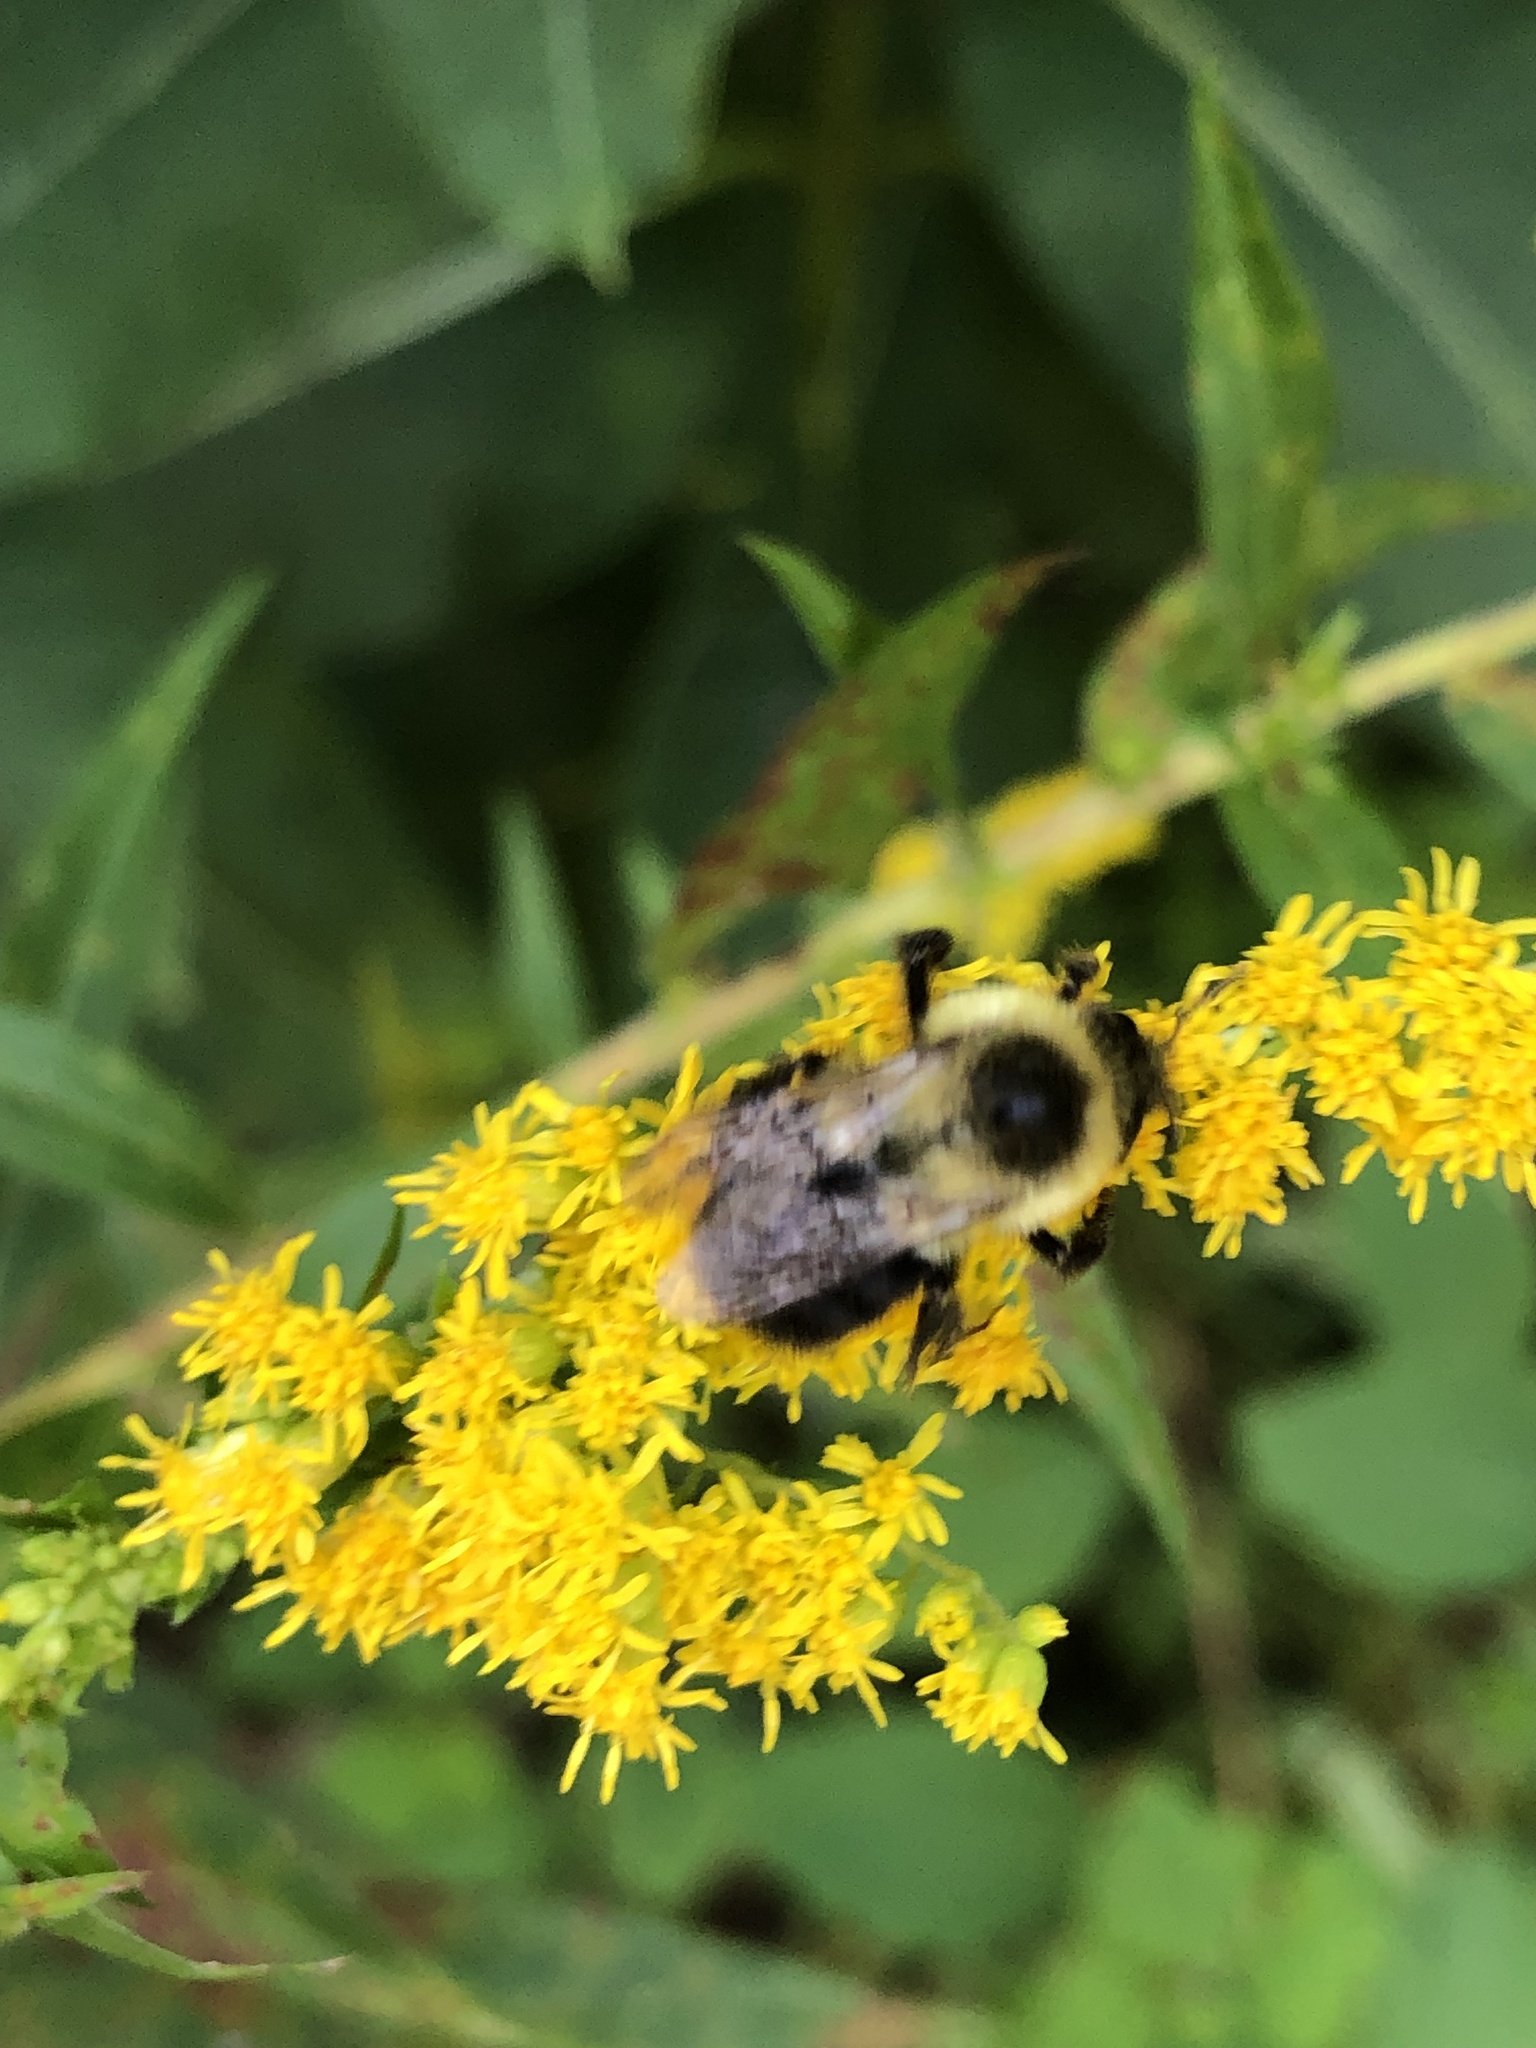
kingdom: Animalia
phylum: Arthropoda
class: Insecta
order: Hymenoptera
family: Apidae
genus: Bombus
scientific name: Bombus impatiens
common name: Common eastern bumble bee
